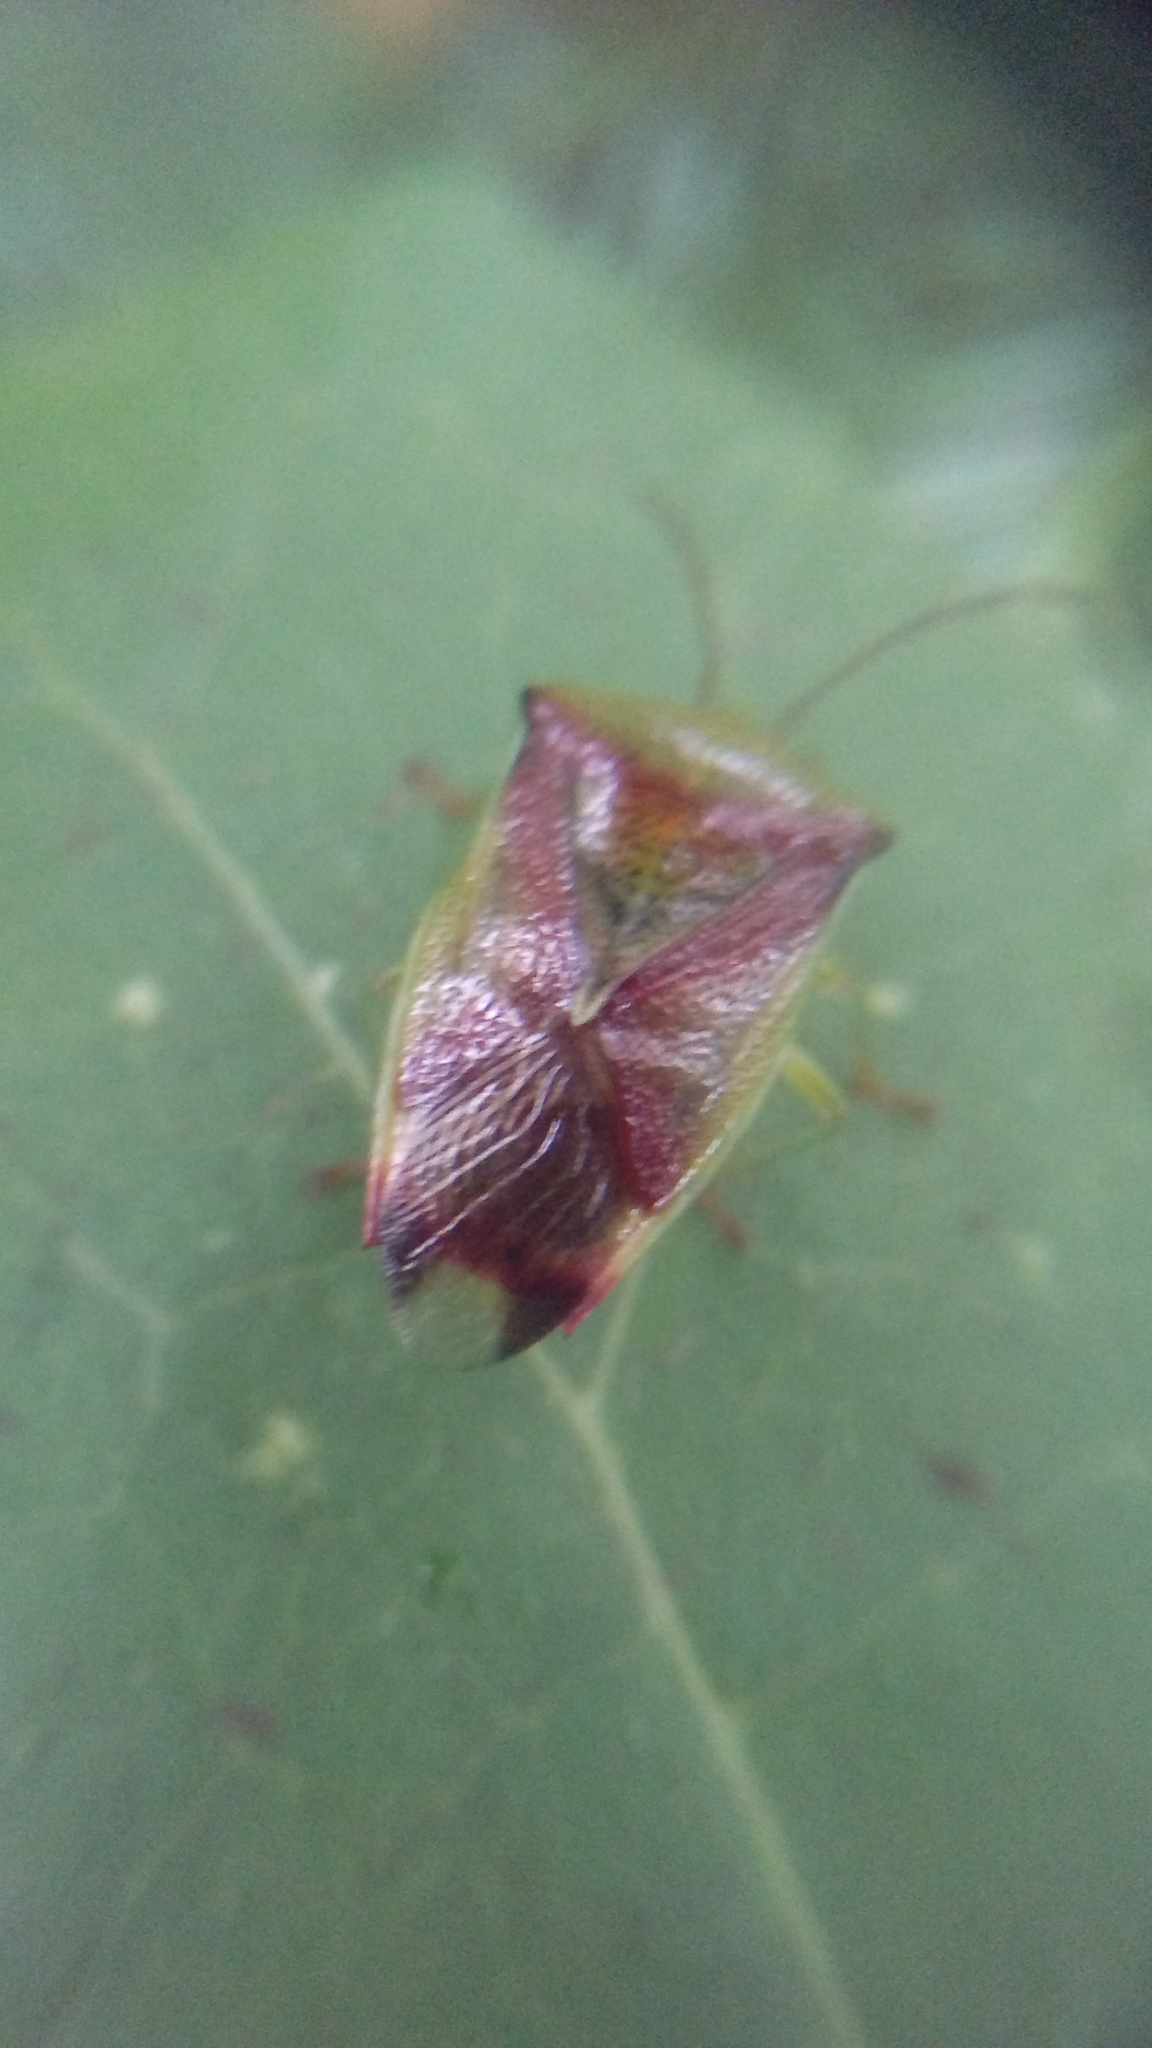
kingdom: Animalia
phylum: Arthropoda
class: Insecta
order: Hemiptera
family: Acanthosomatidae
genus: Elasmostethus
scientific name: Elasmostethus interstinctus
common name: Birch shieldbug
